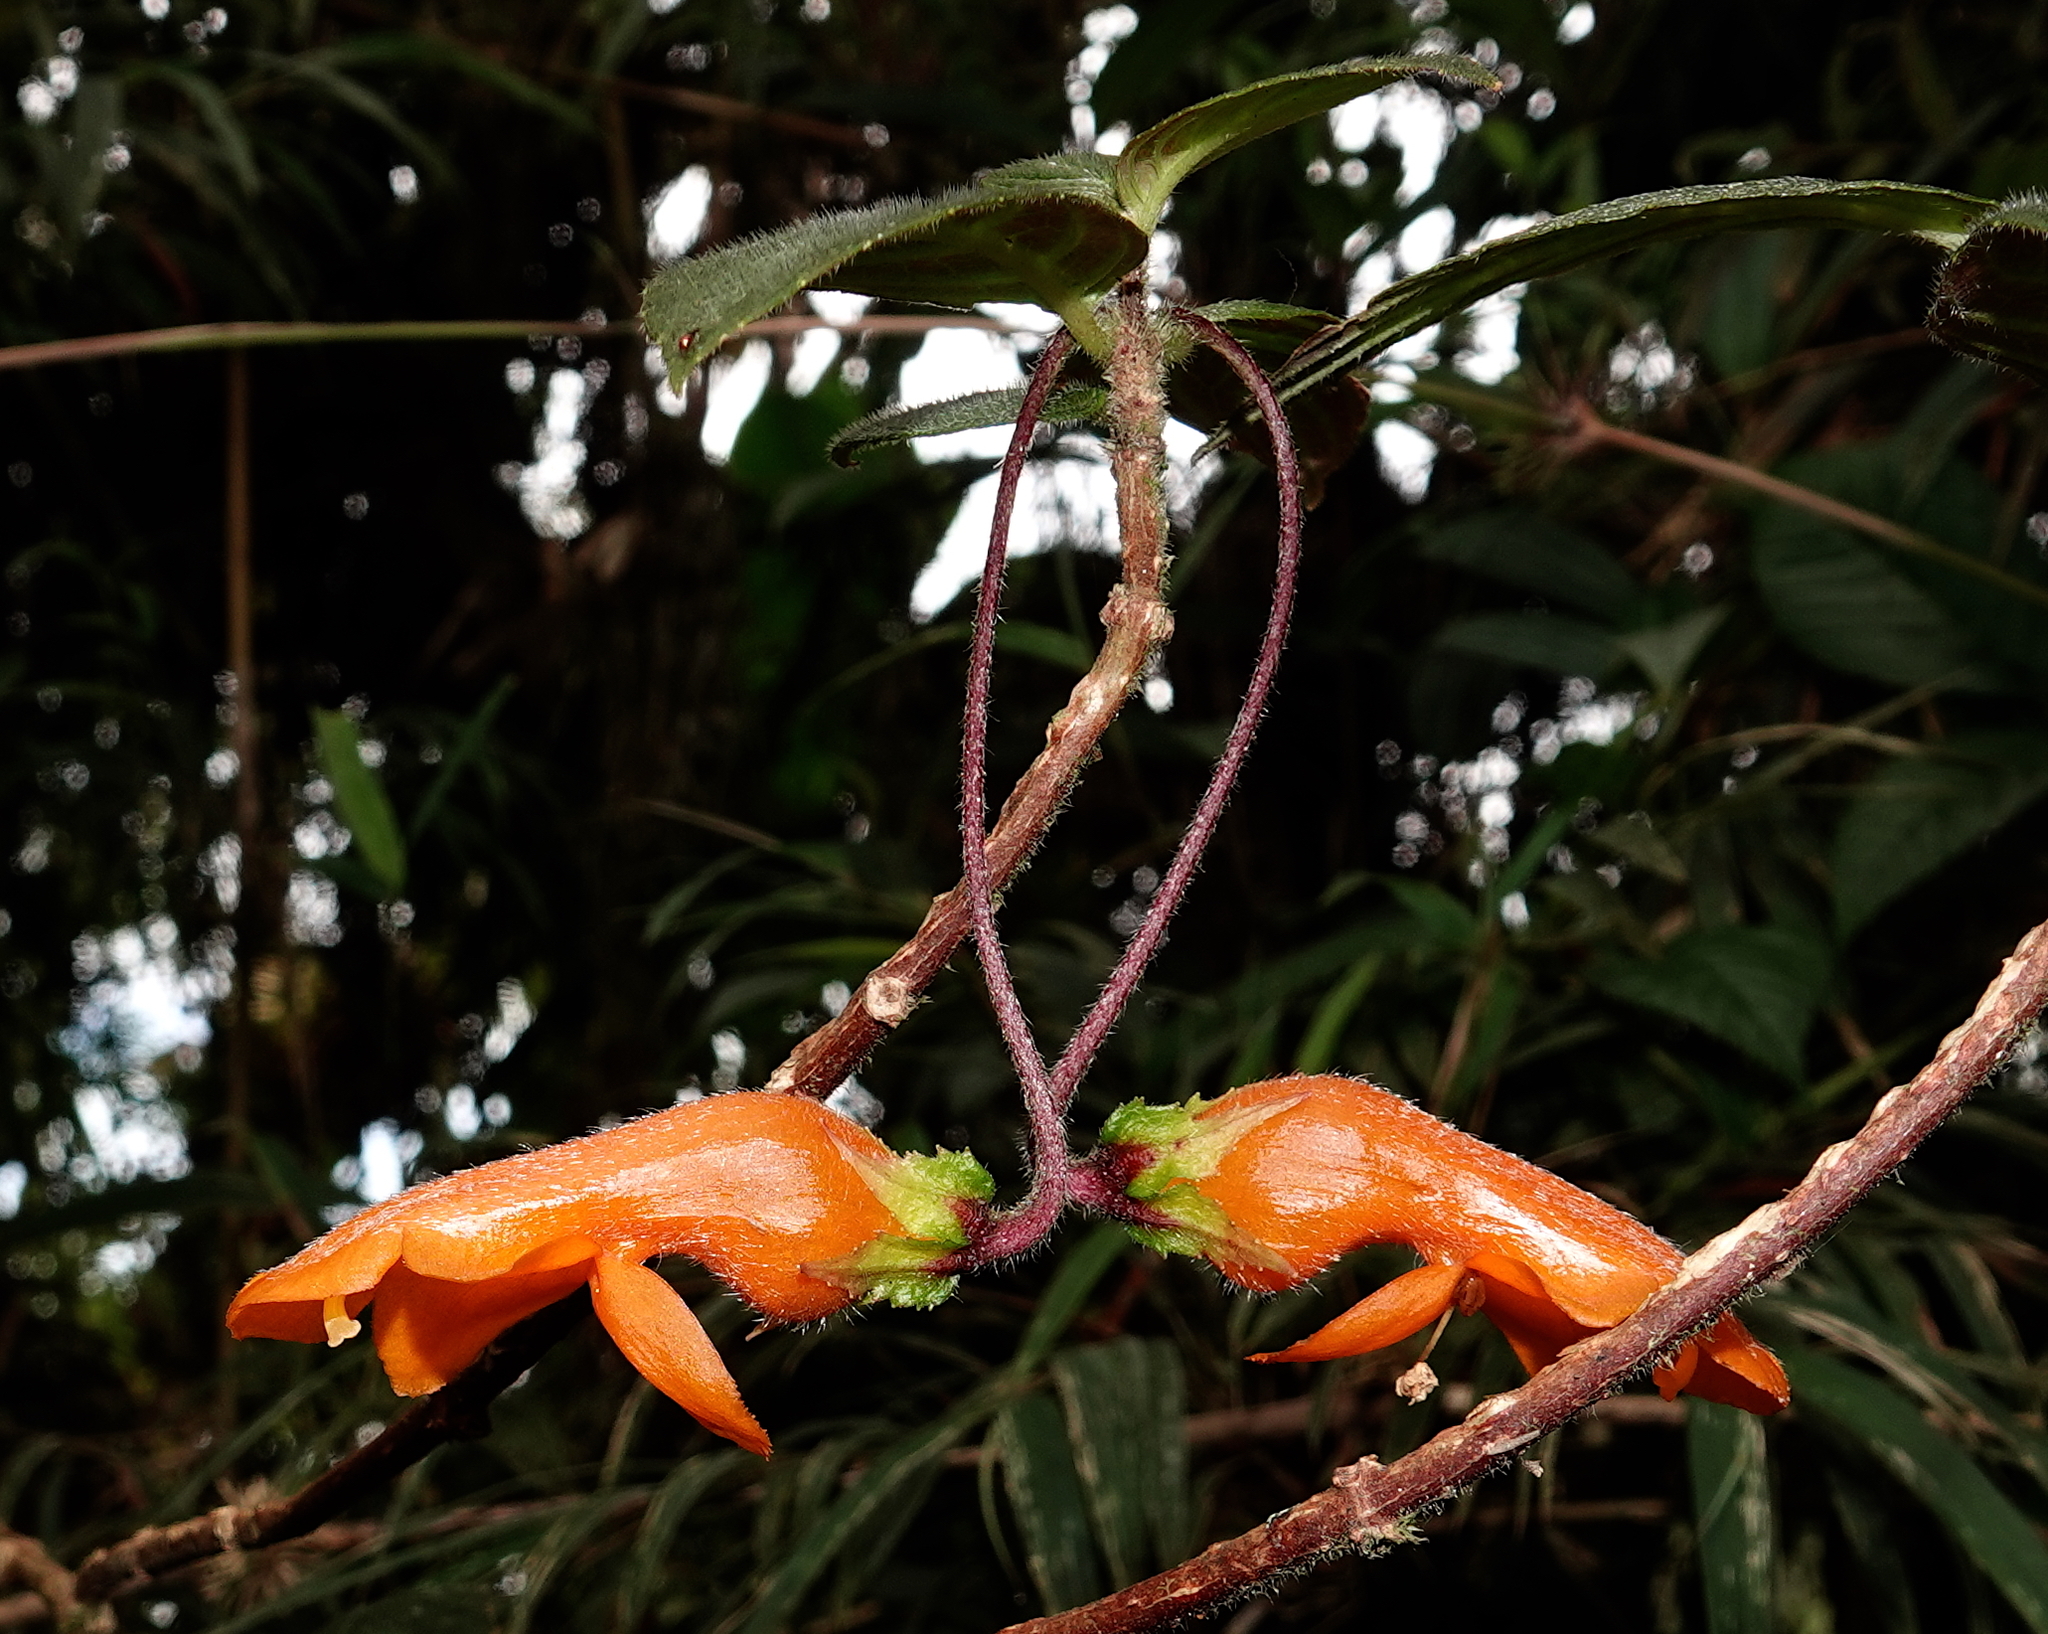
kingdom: Plantae
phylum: Tracheophyta
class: Magnoliopsida
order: Lamiales
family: Gesneriaceae
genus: Columnea
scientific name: Columnea strigosa
